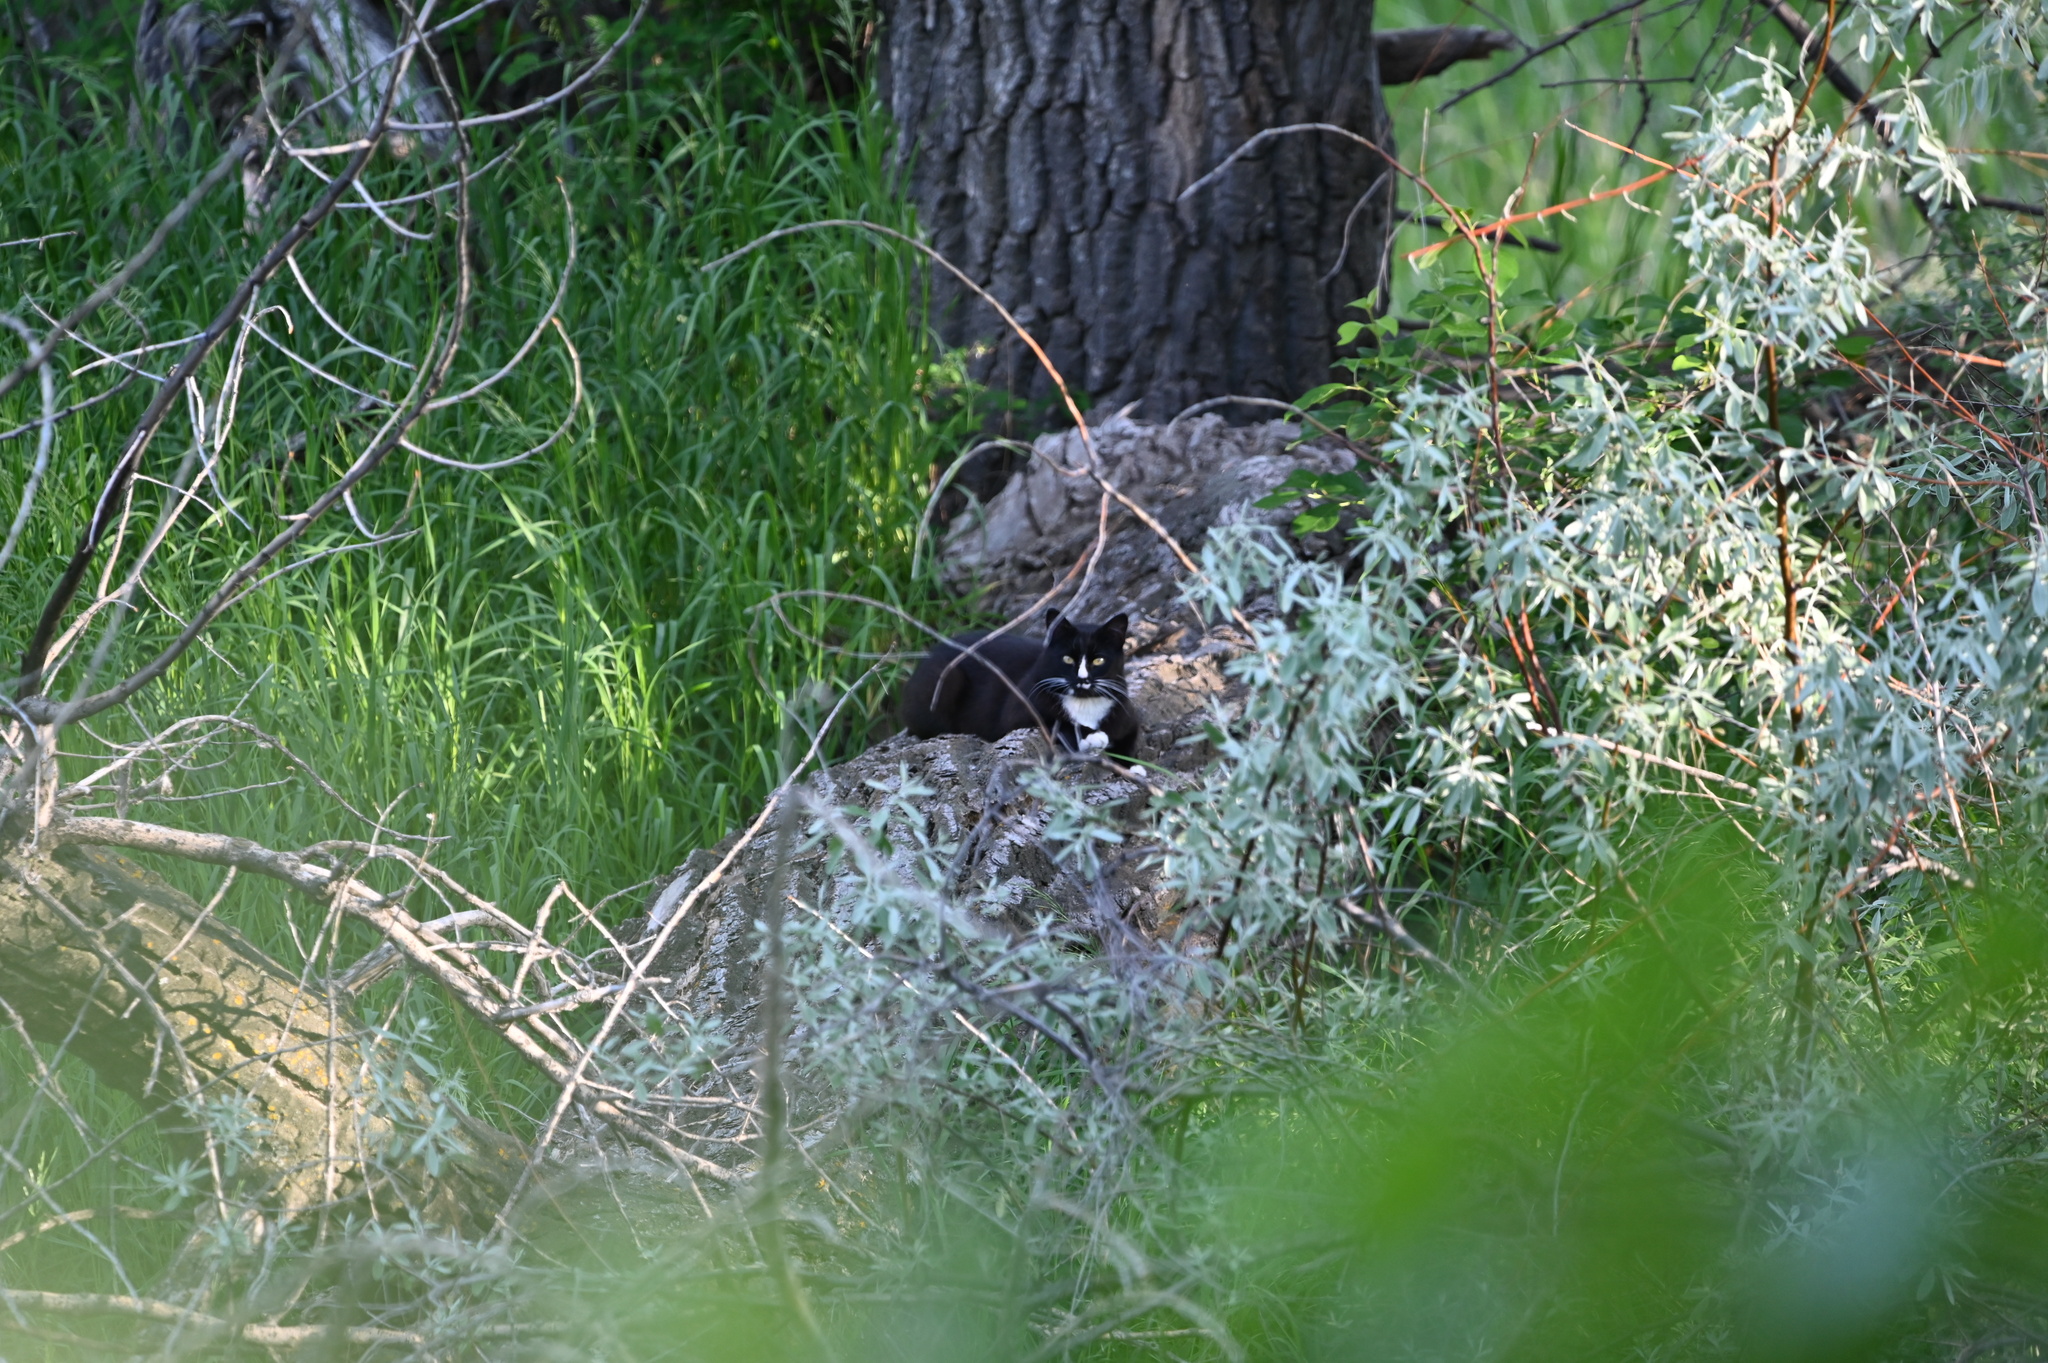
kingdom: Animalia
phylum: Chordata
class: Mammalia
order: Carnivora
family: Felidae
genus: Felis
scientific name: Felis catus
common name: Domestic cat
